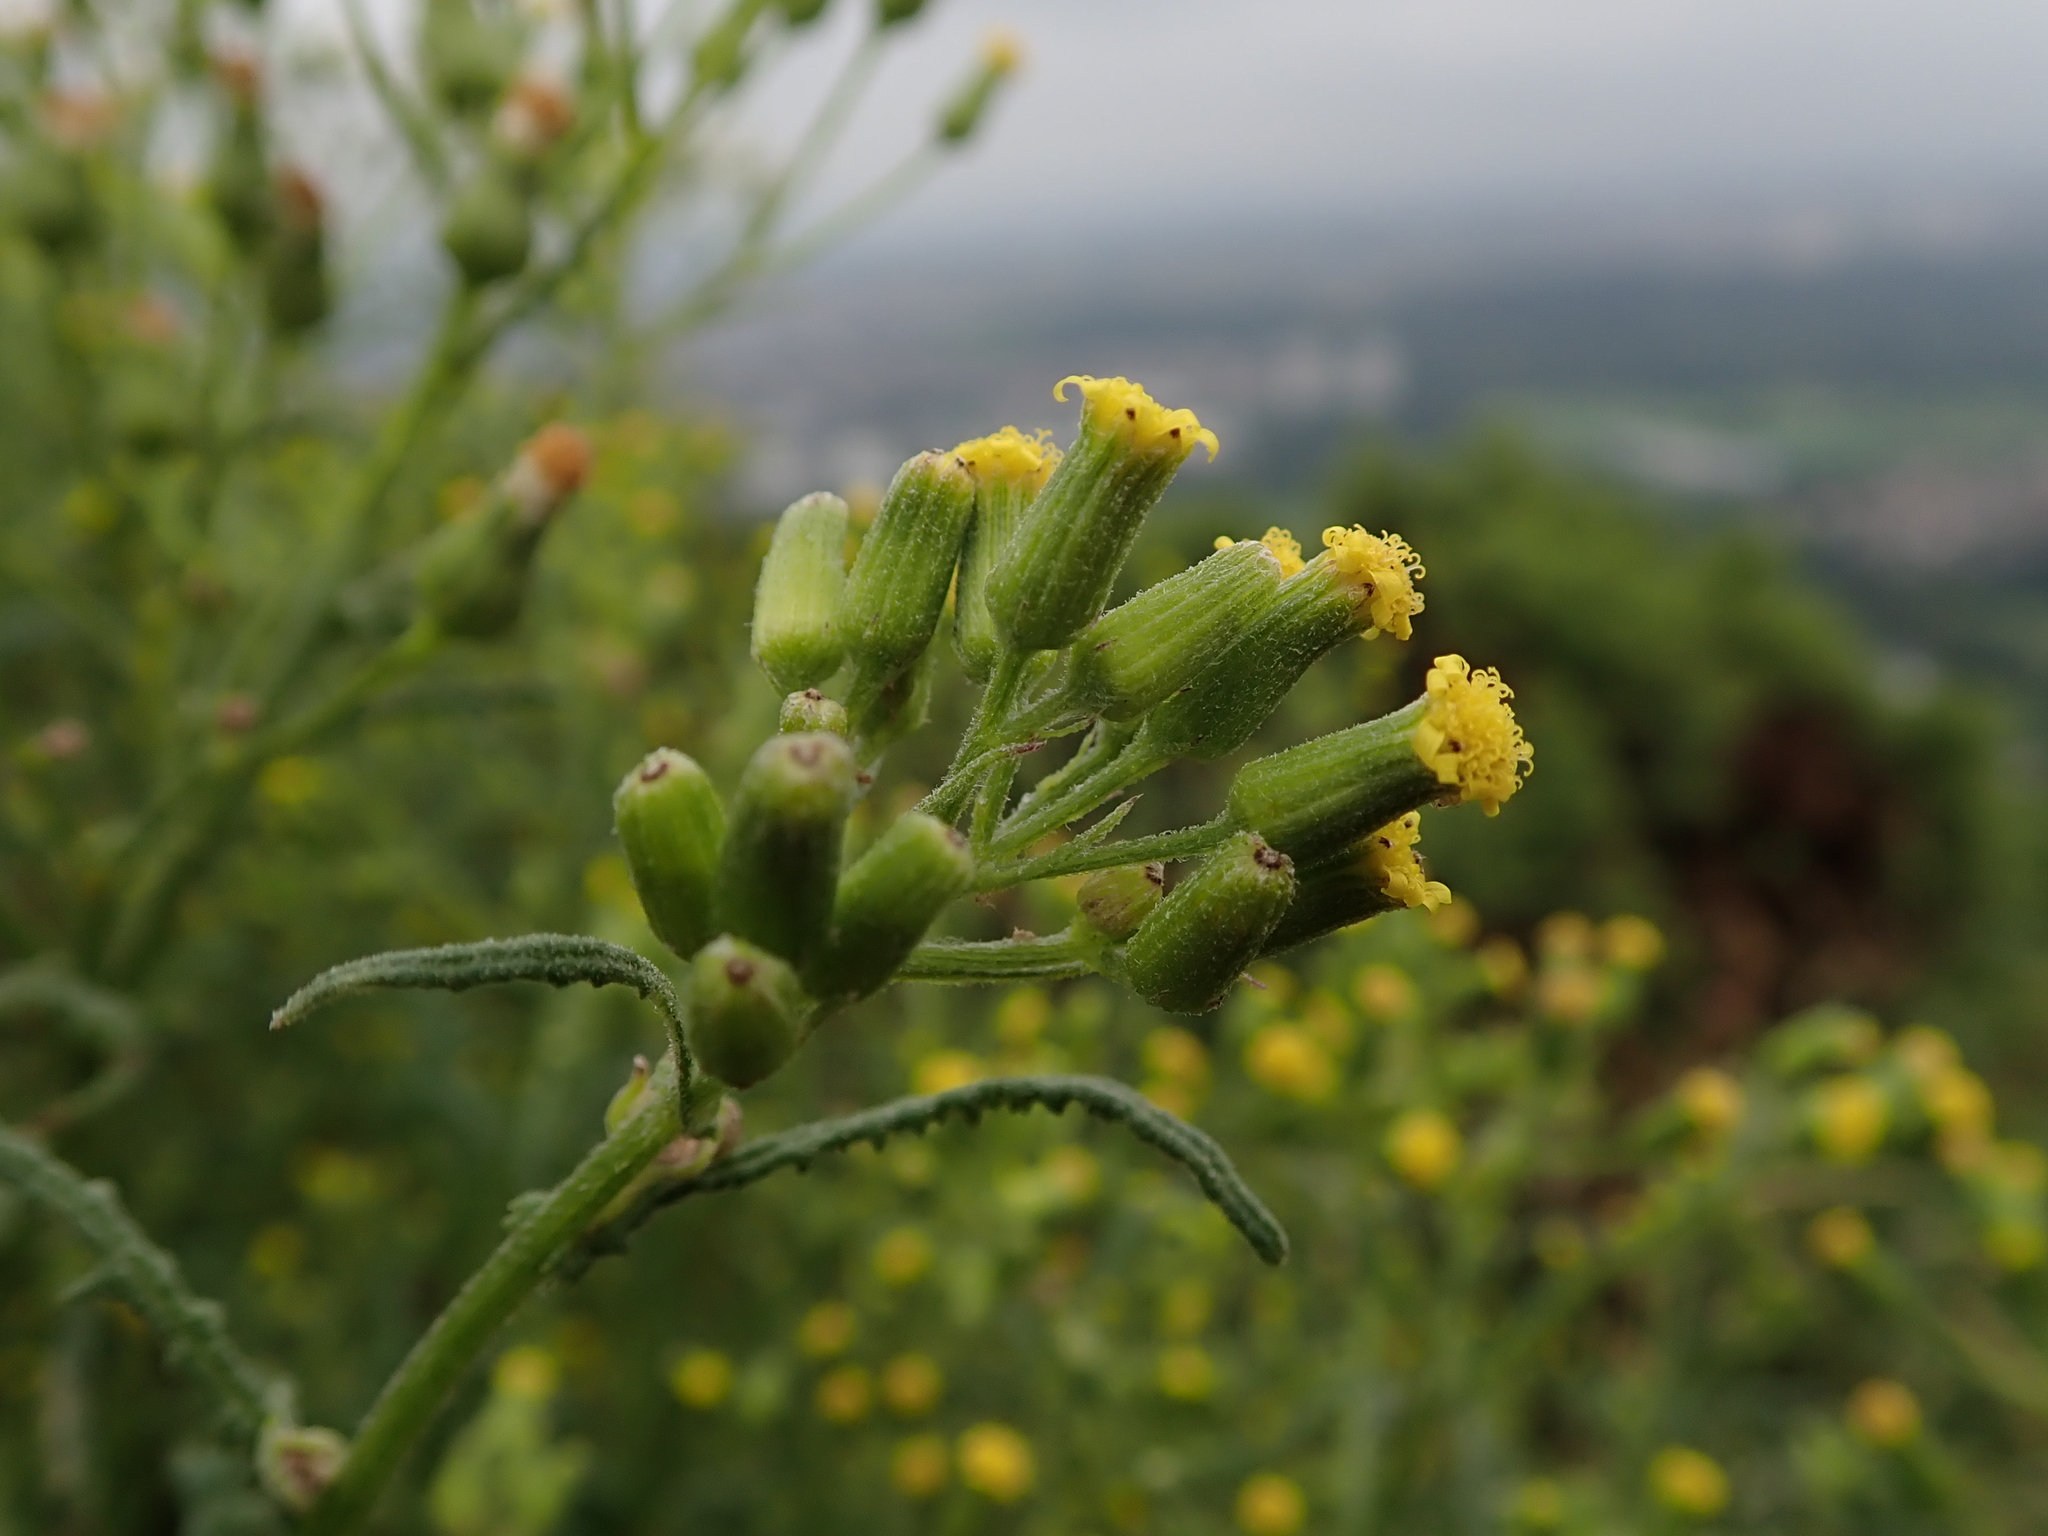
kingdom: Plantae
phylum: Tracheophyta
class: Magnoliopsida
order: Asterales
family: Asteraceae
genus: Senecio
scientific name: Senecio sylvaticus
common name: Woodland ragwort
